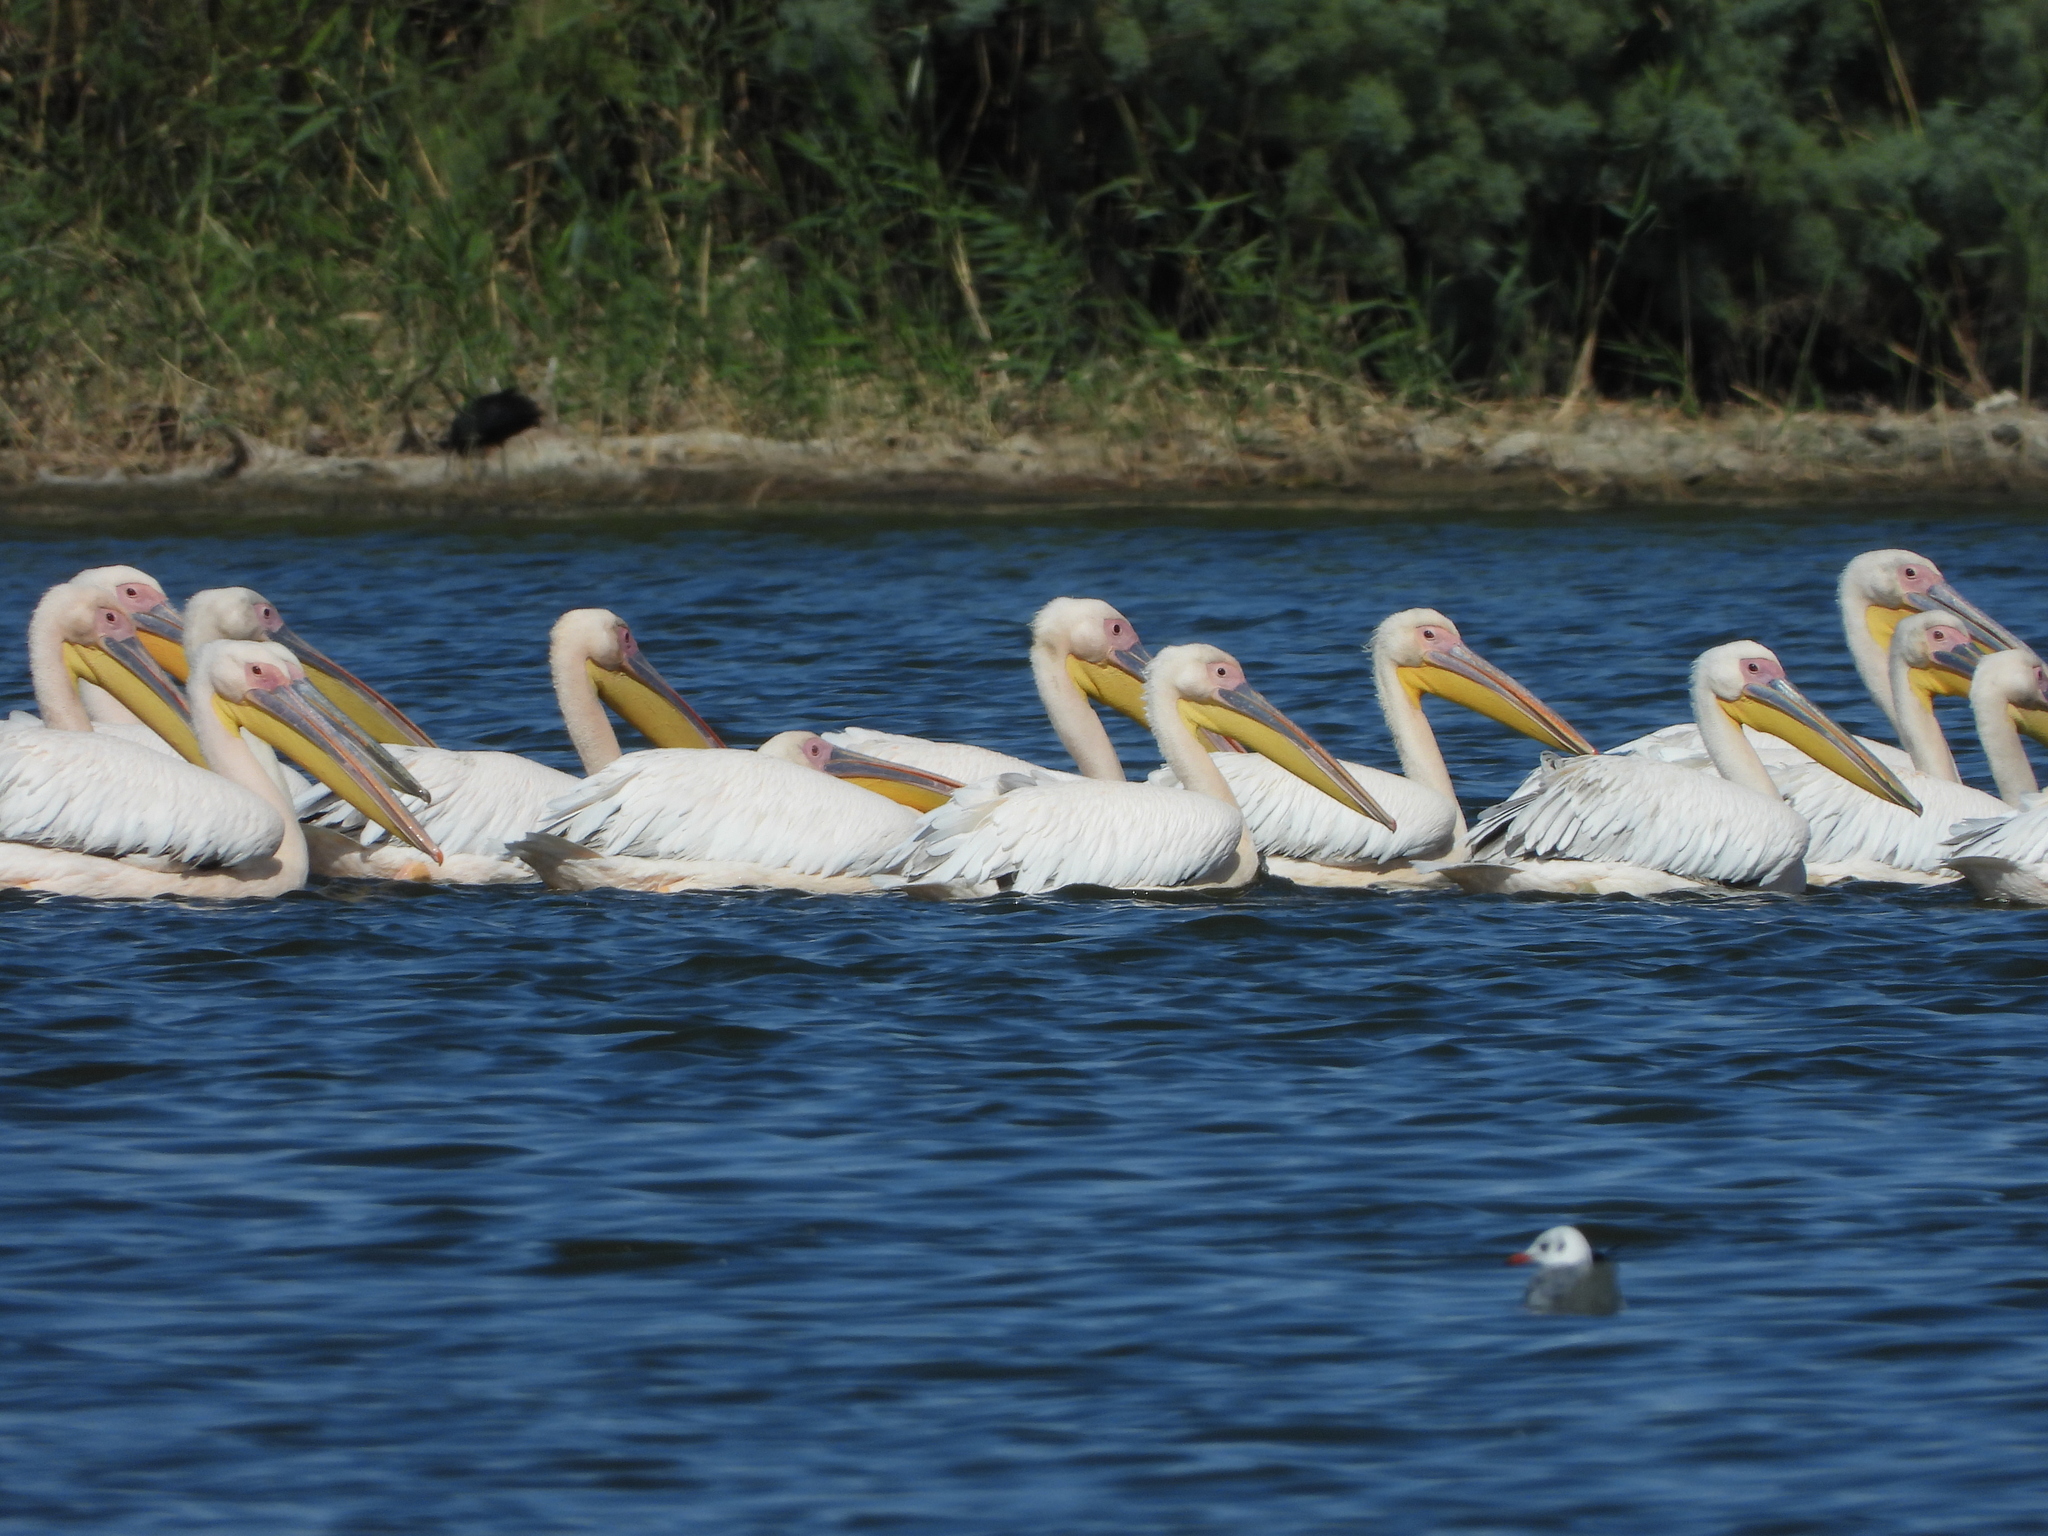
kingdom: Animalia
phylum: Chordata
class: Aves
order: Pelecaniformes
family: Pelecanidae
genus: Pelecanus
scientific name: Pelecanus onocrotalus
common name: Great white pelican
